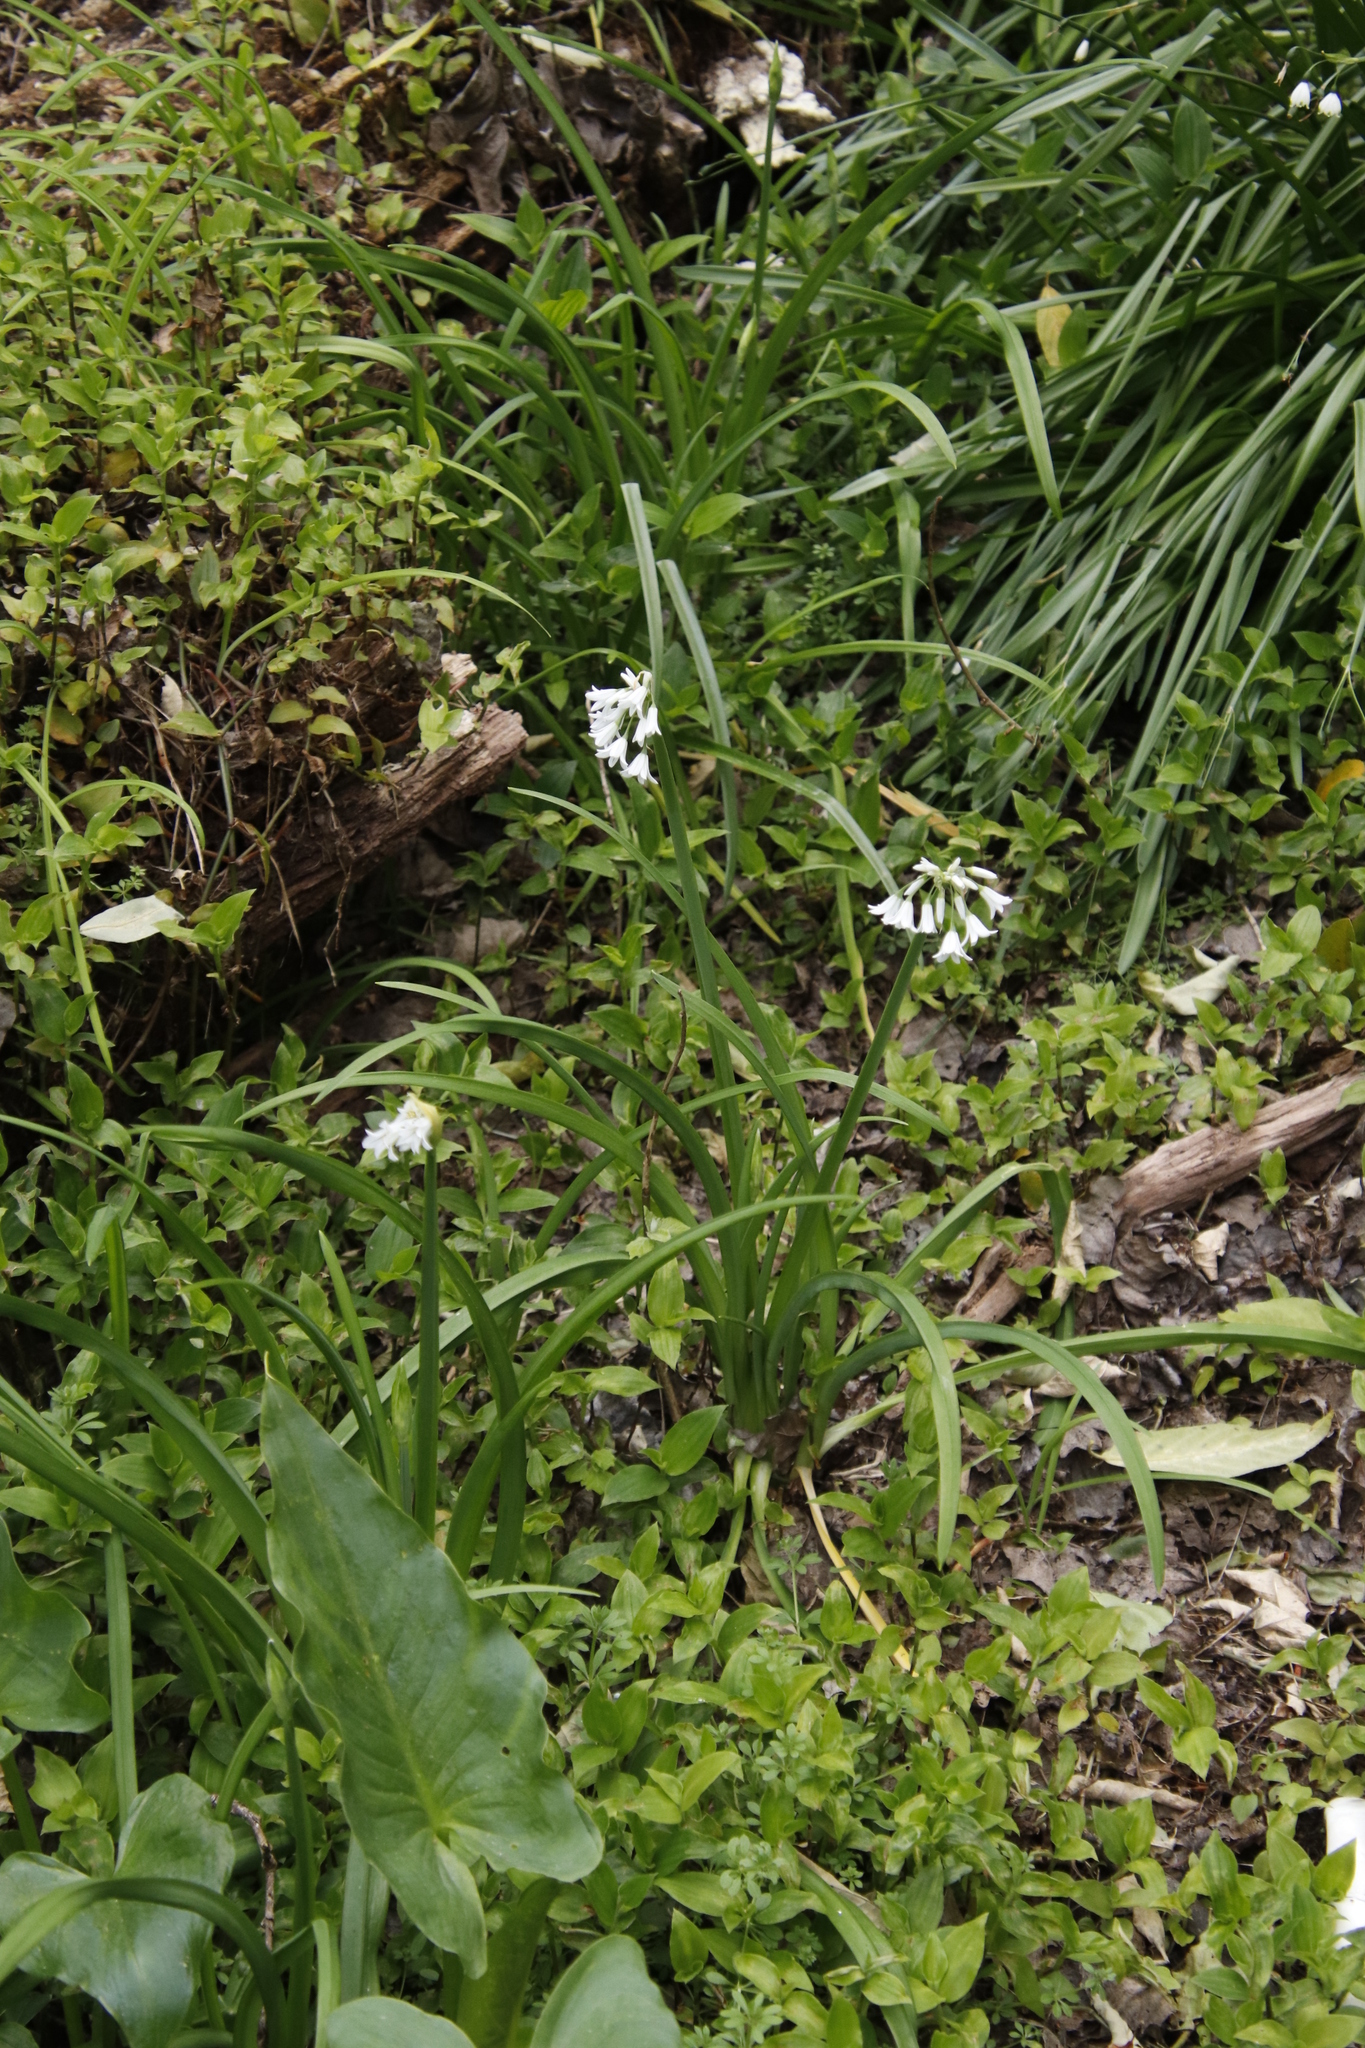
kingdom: Plantae
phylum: Tracheophyta
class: Liliopsida
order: Asparagales
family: Amaryllidaceae
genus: Allium
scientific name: Allium triquetrum
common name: Three-cornered garlic
